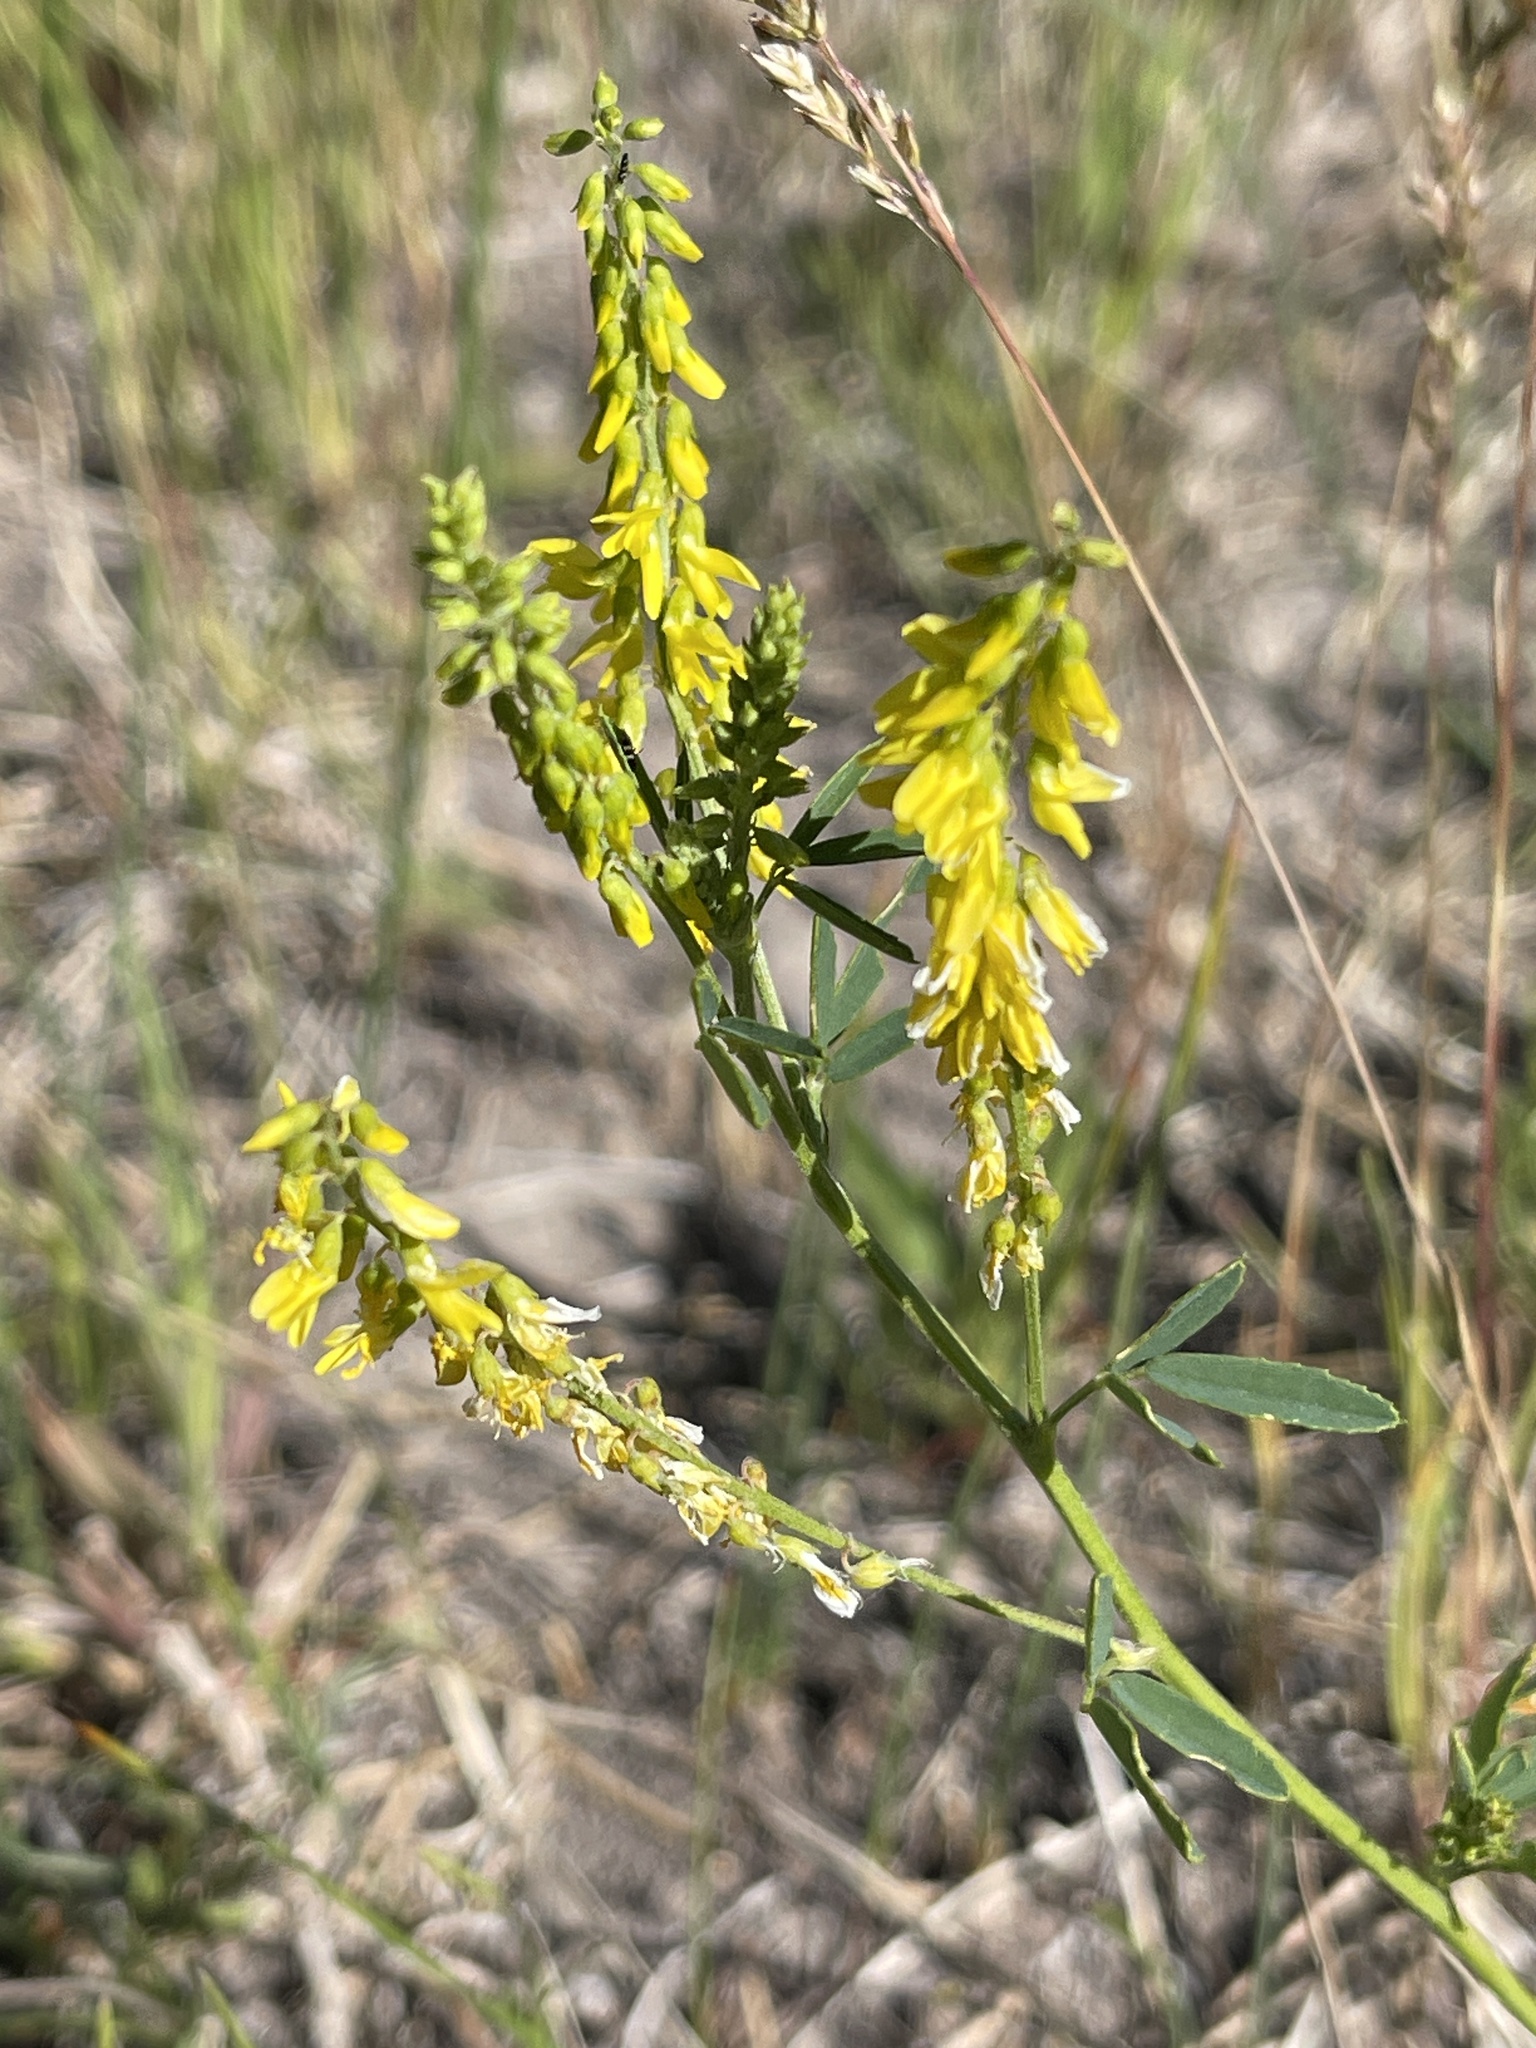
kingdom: Plantae
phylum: Tracheophyta
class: Magnoliopsida
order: Fabales
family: Fabaceae
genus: Melilotus
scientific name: Melilotus officinalis
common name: Sweetclover
